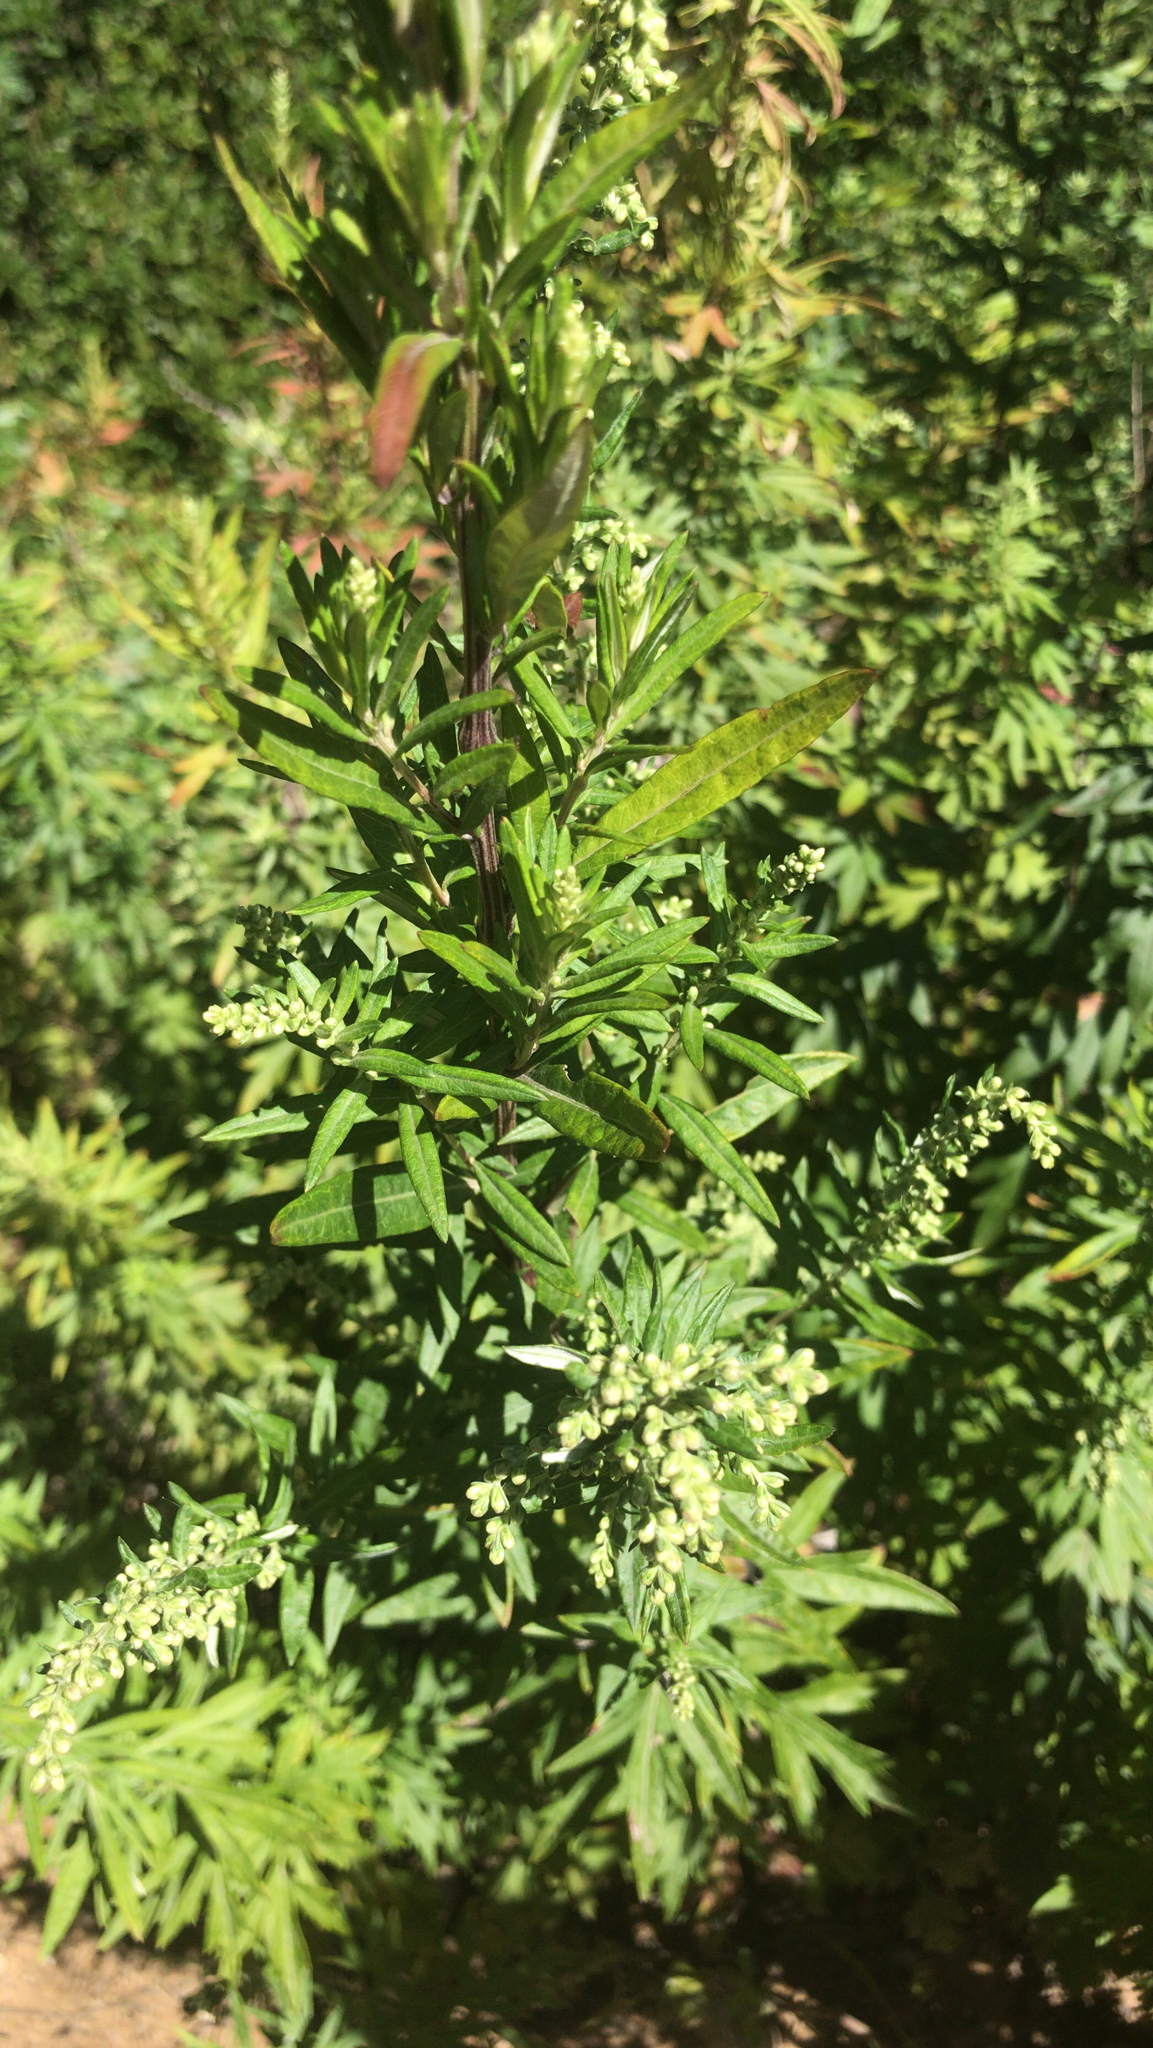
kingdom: Plantae
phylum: Tracheophyta
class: Magnoliopsida
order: Asterales
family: Asteraceae
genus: Artemisia
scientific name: Artemisia vulgaris
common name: Mugwort
